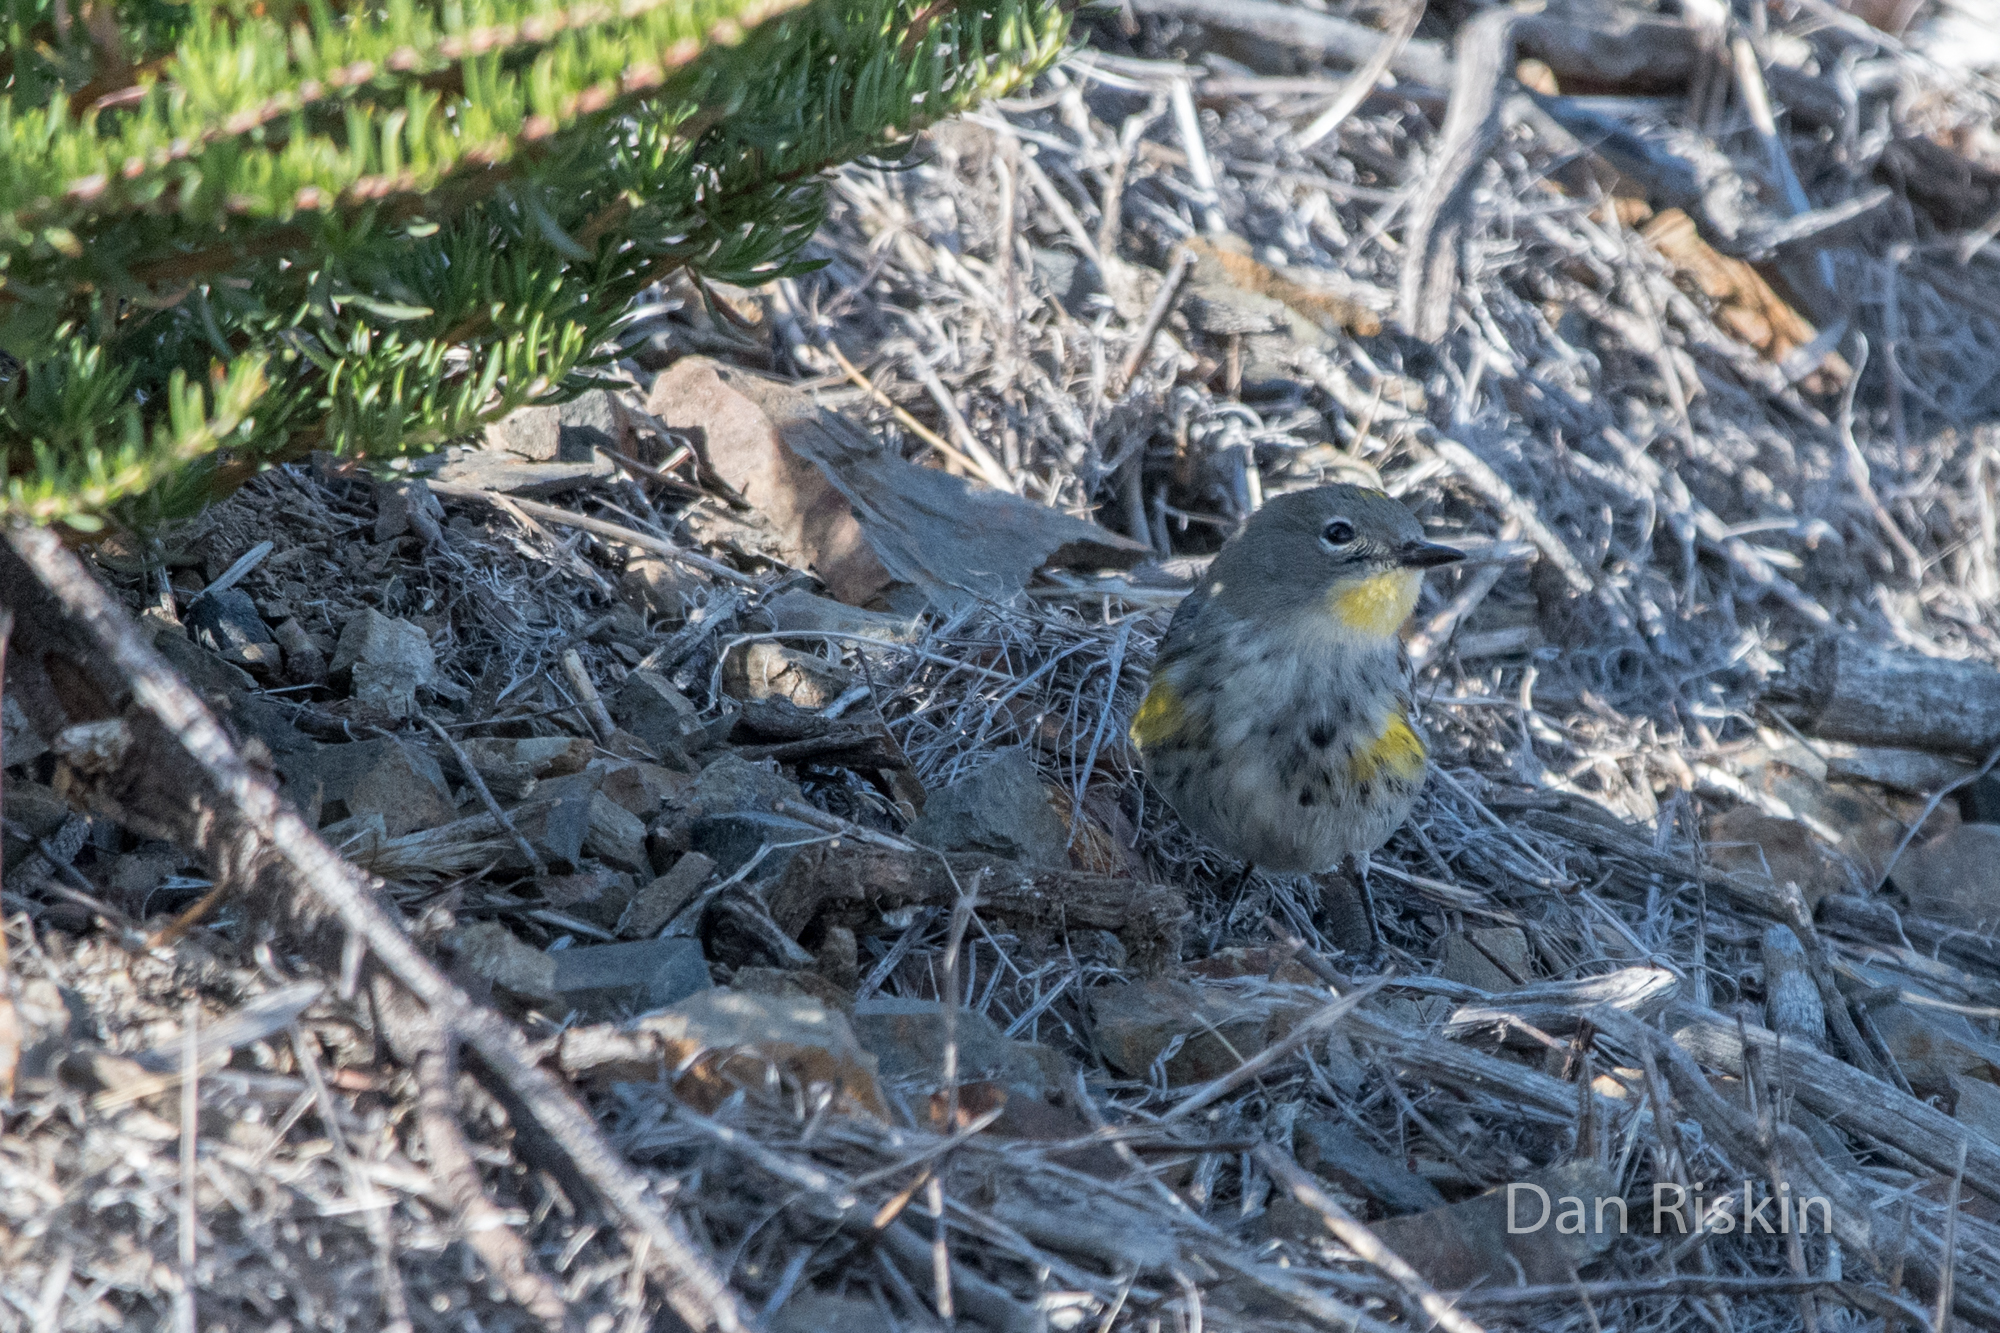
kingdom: Animalia
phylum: Chordata
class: Aves
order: Passeriformes
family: Parulidae
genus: Setophaga
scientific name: Setophaga auduboni
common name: Audubon's warbler
